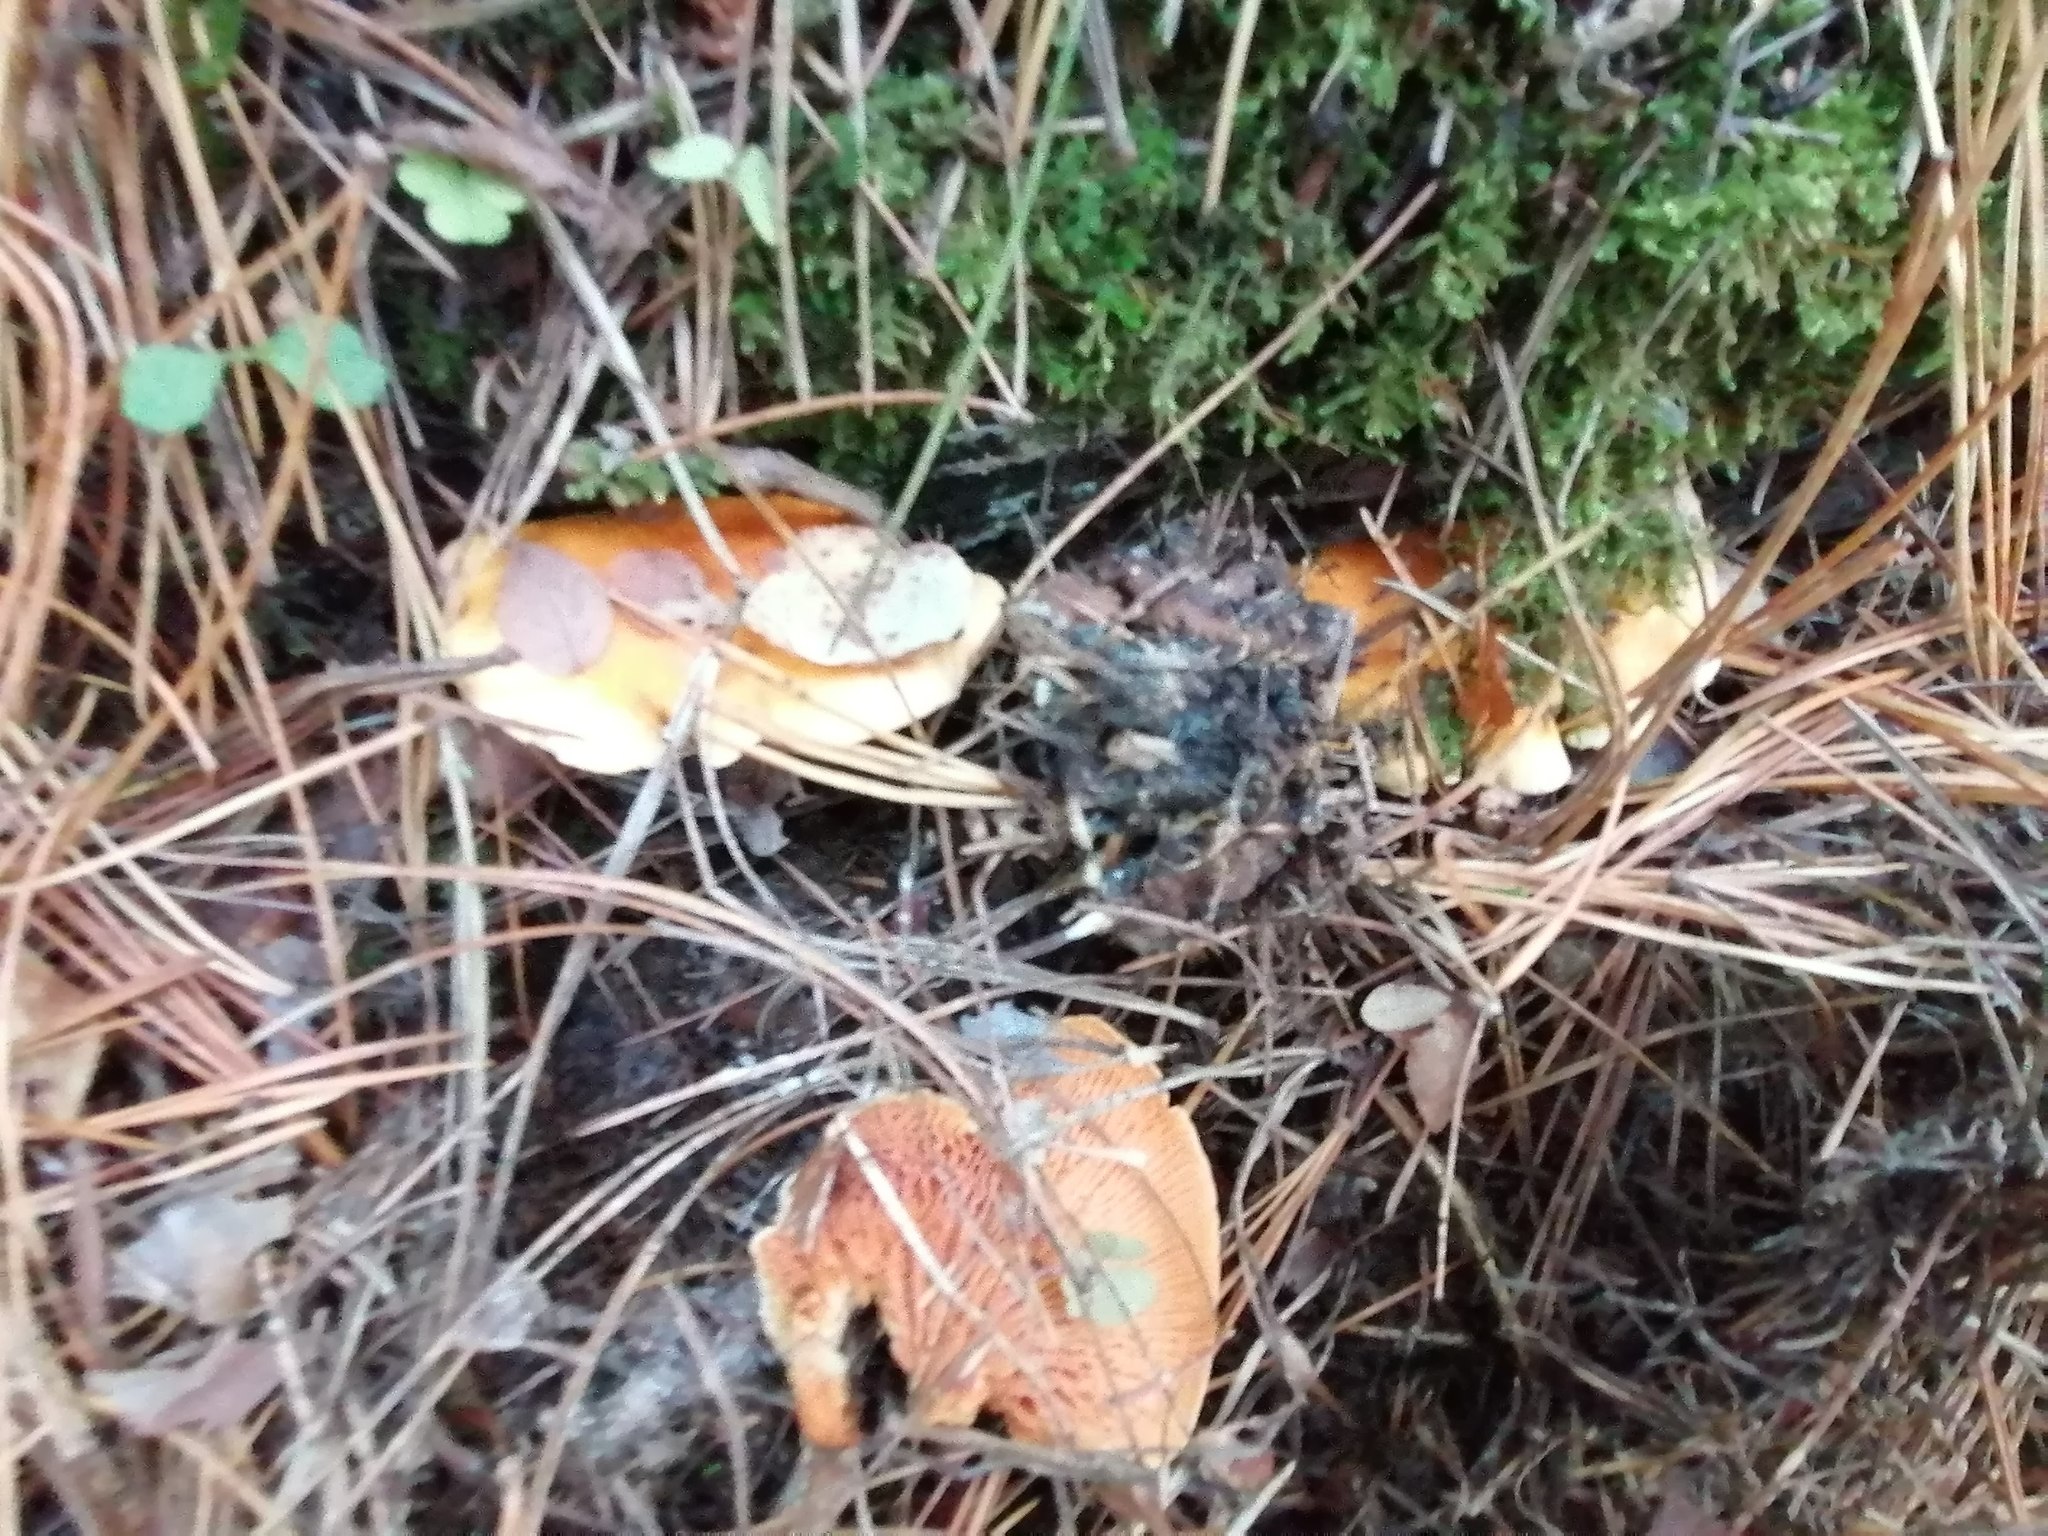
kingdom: Fungi
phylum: Basidiomycota
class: Agaricomycetes
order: Boletales
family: Hygrophoropsidaceae
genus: Hygrophoropsis
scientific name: Hygrophoropsis aurantiaca
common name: False chanterelle
